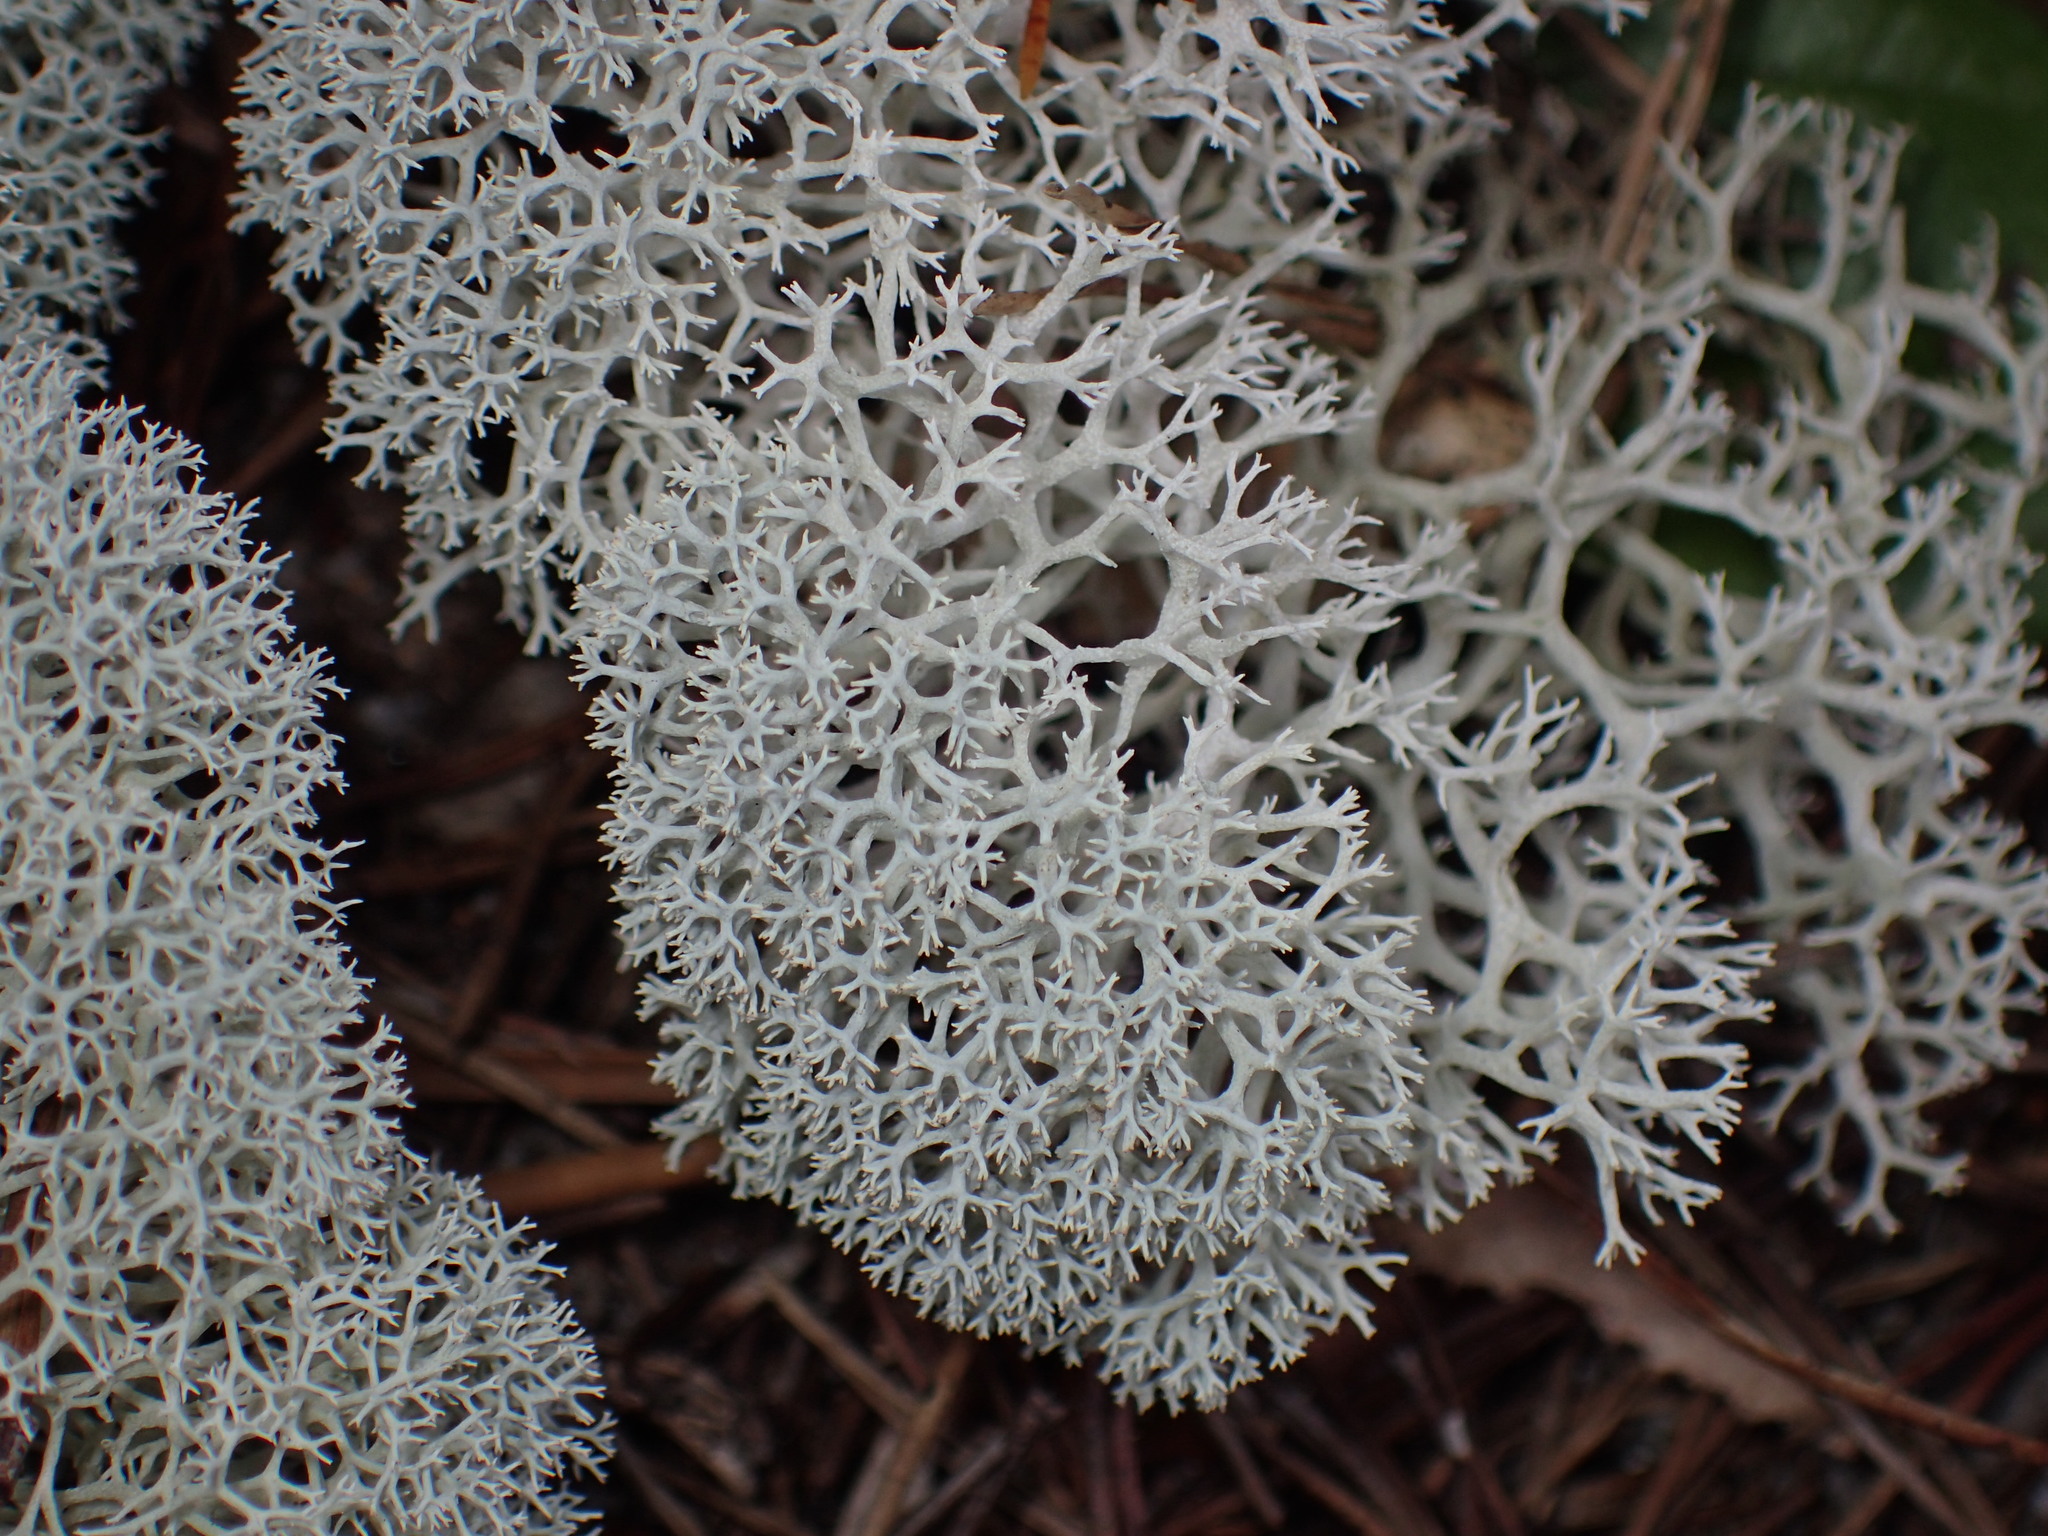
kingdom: Fungi
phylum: Ascomycota
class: Lecanoromycetes
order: Lecanorales
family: Cladoniaceae
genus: Cladonia
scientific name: Cladonia evansii
